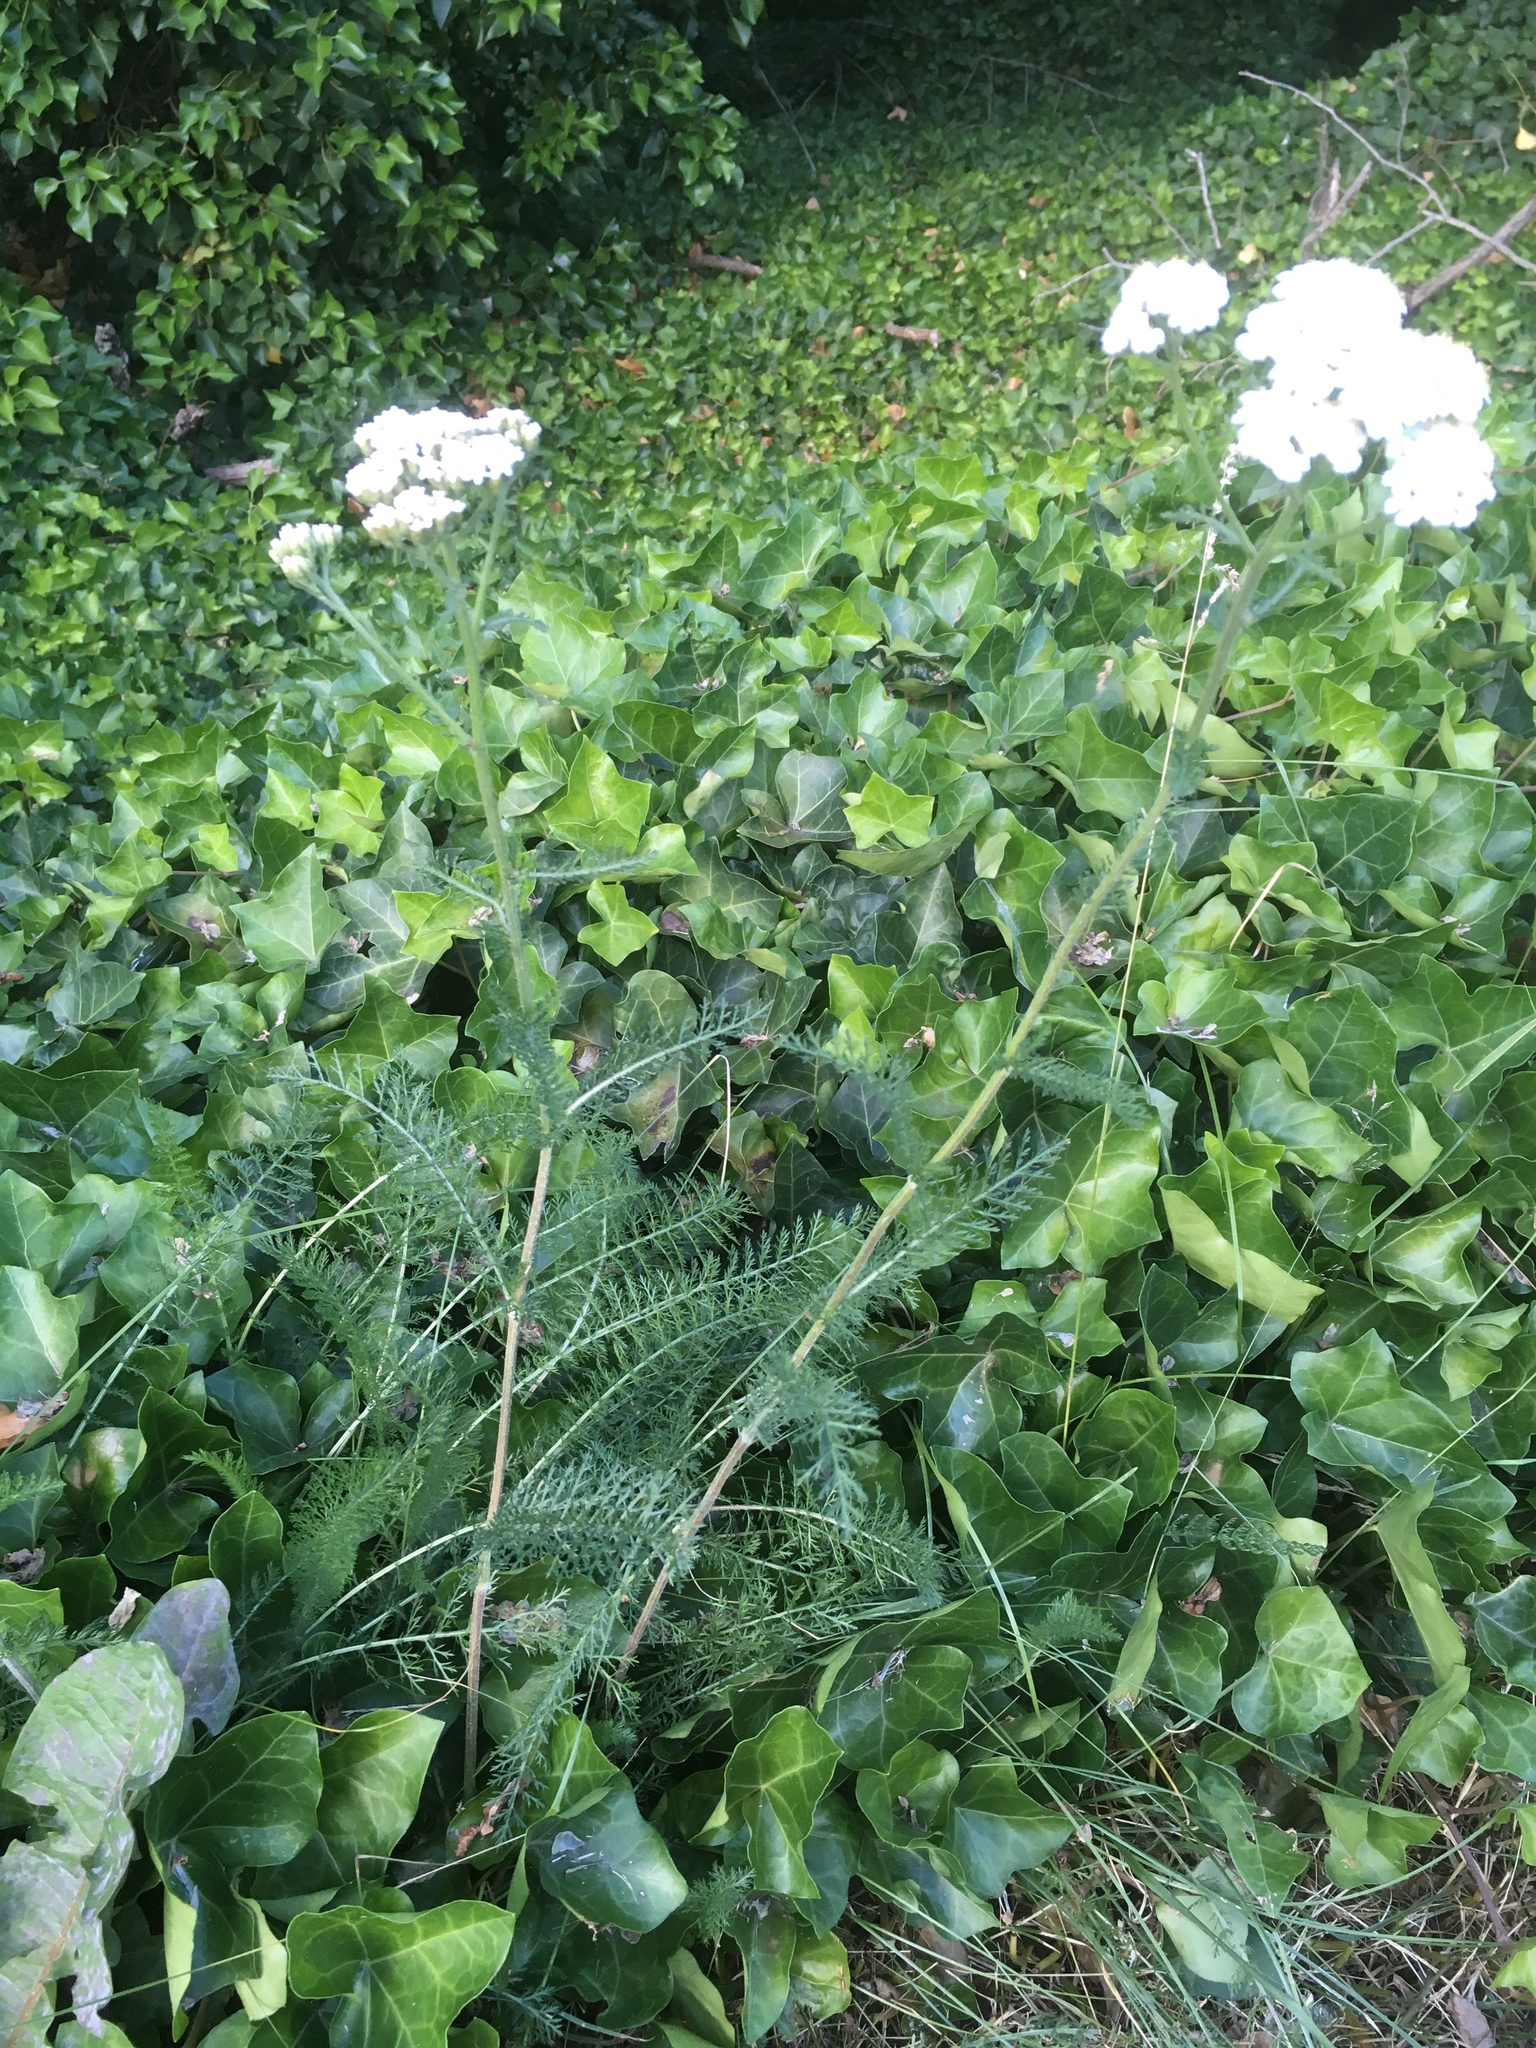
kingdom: Plantae
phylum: Tracheophyta
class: Magnoliopsida
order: Asterales
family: Asteraceae
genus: Achillea
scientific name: Achillea millefolium
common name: Yarrow
